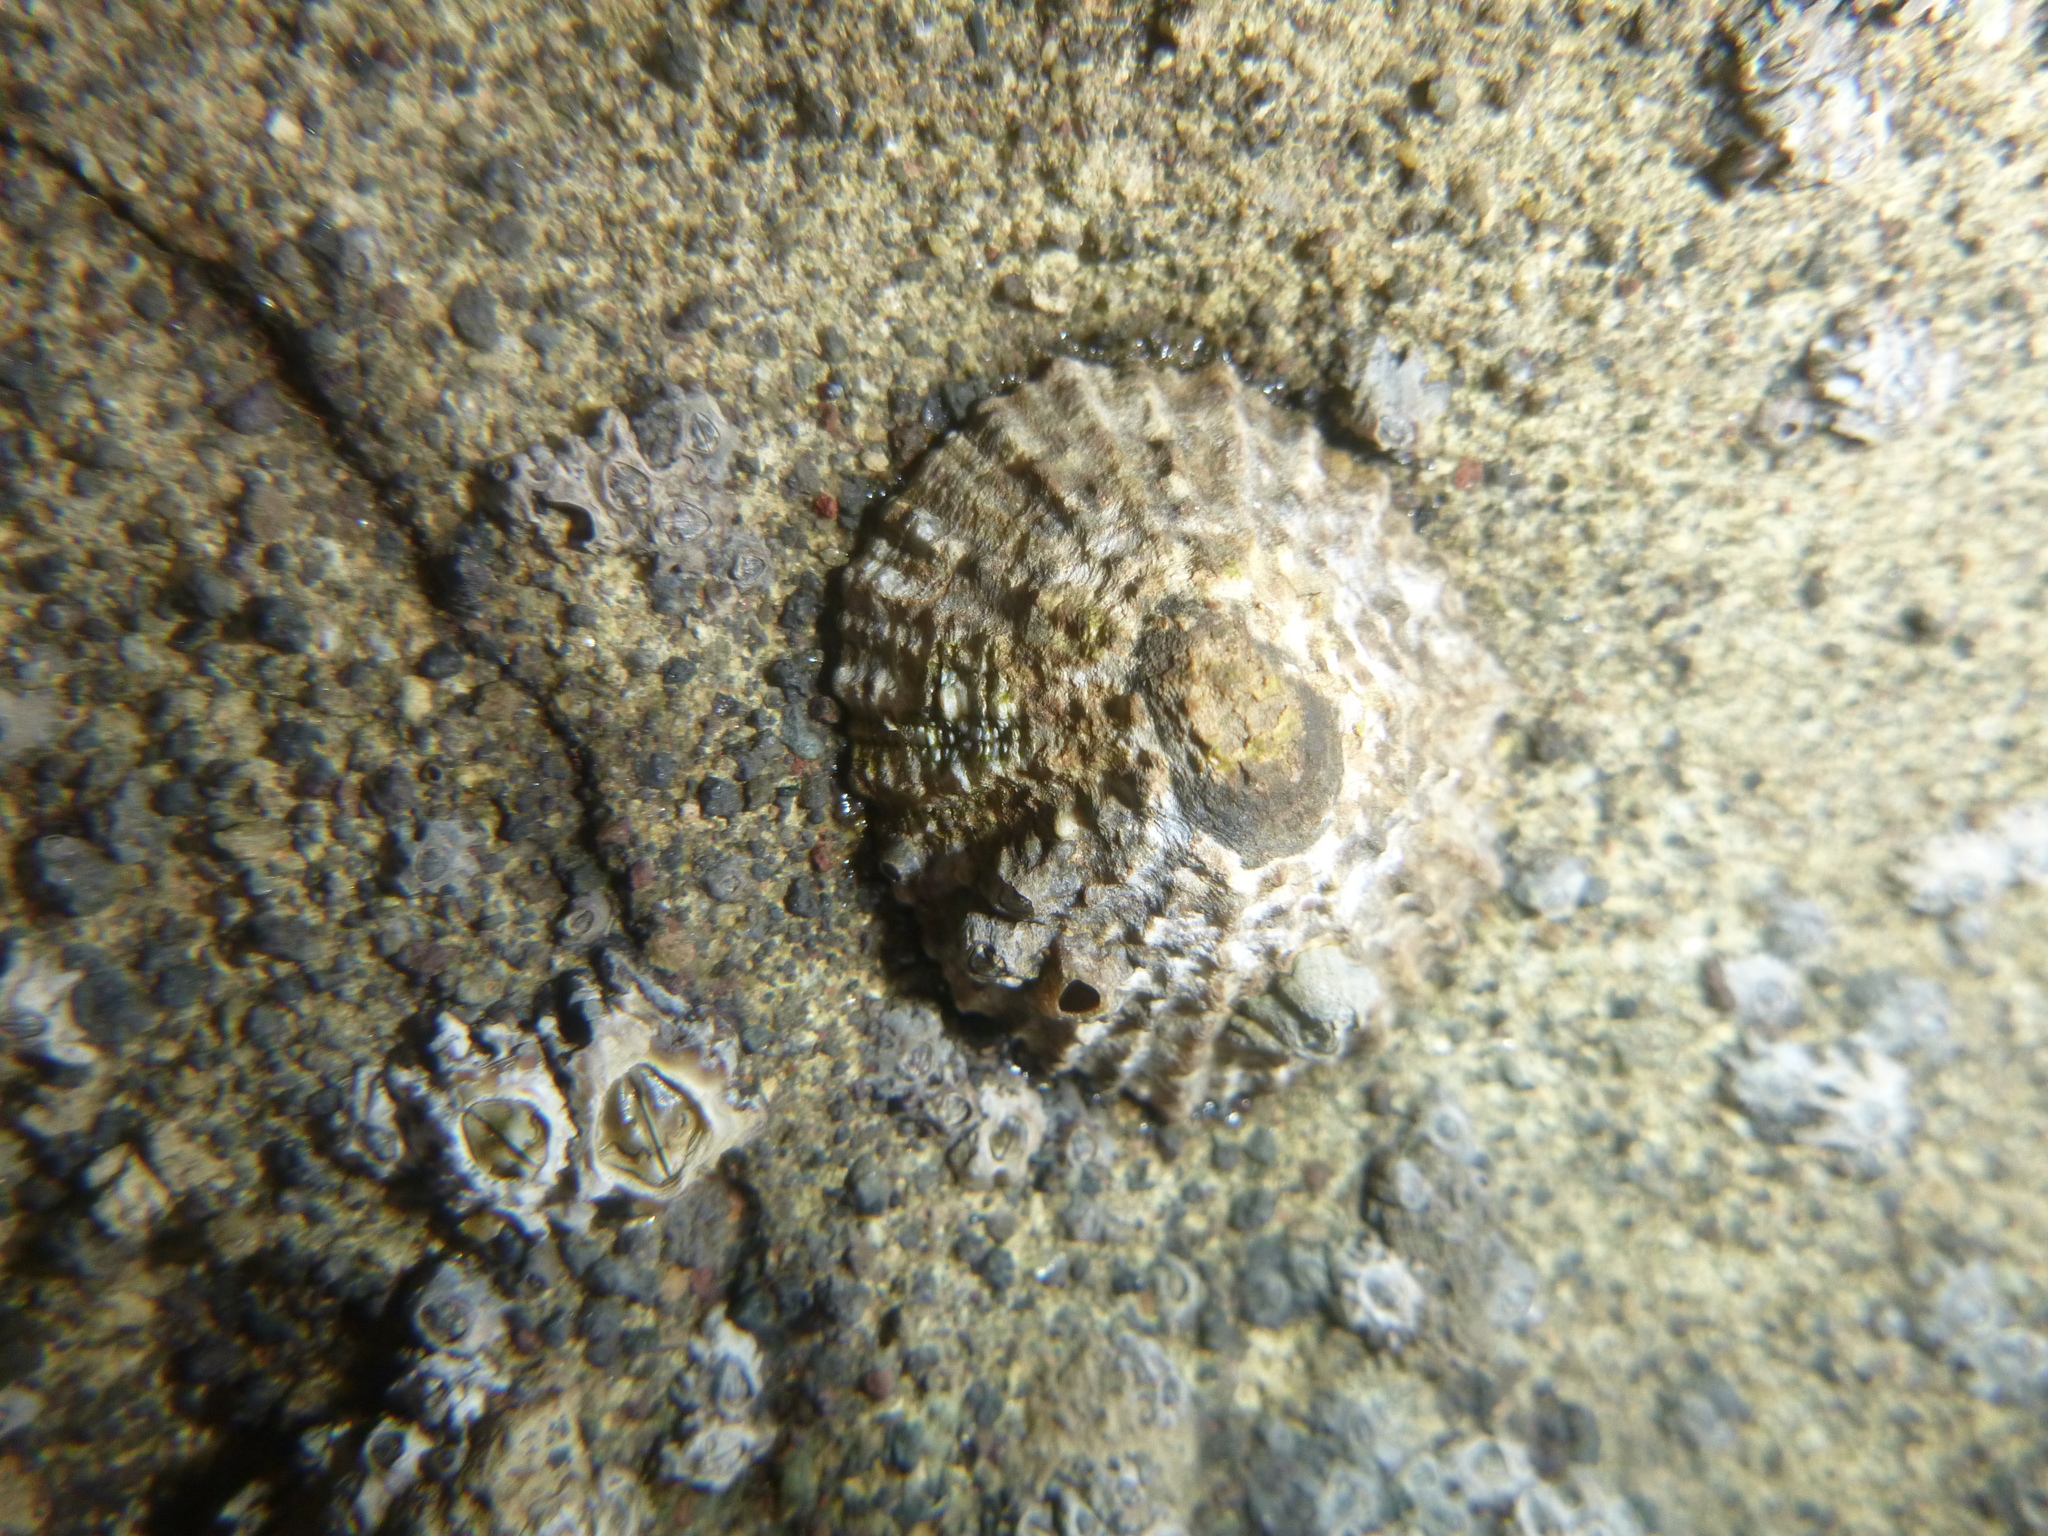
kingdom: Animalia
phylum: Mollusca
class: Gastropoda
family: Nacellidae
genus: Cellana
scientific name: Cellana ornata
